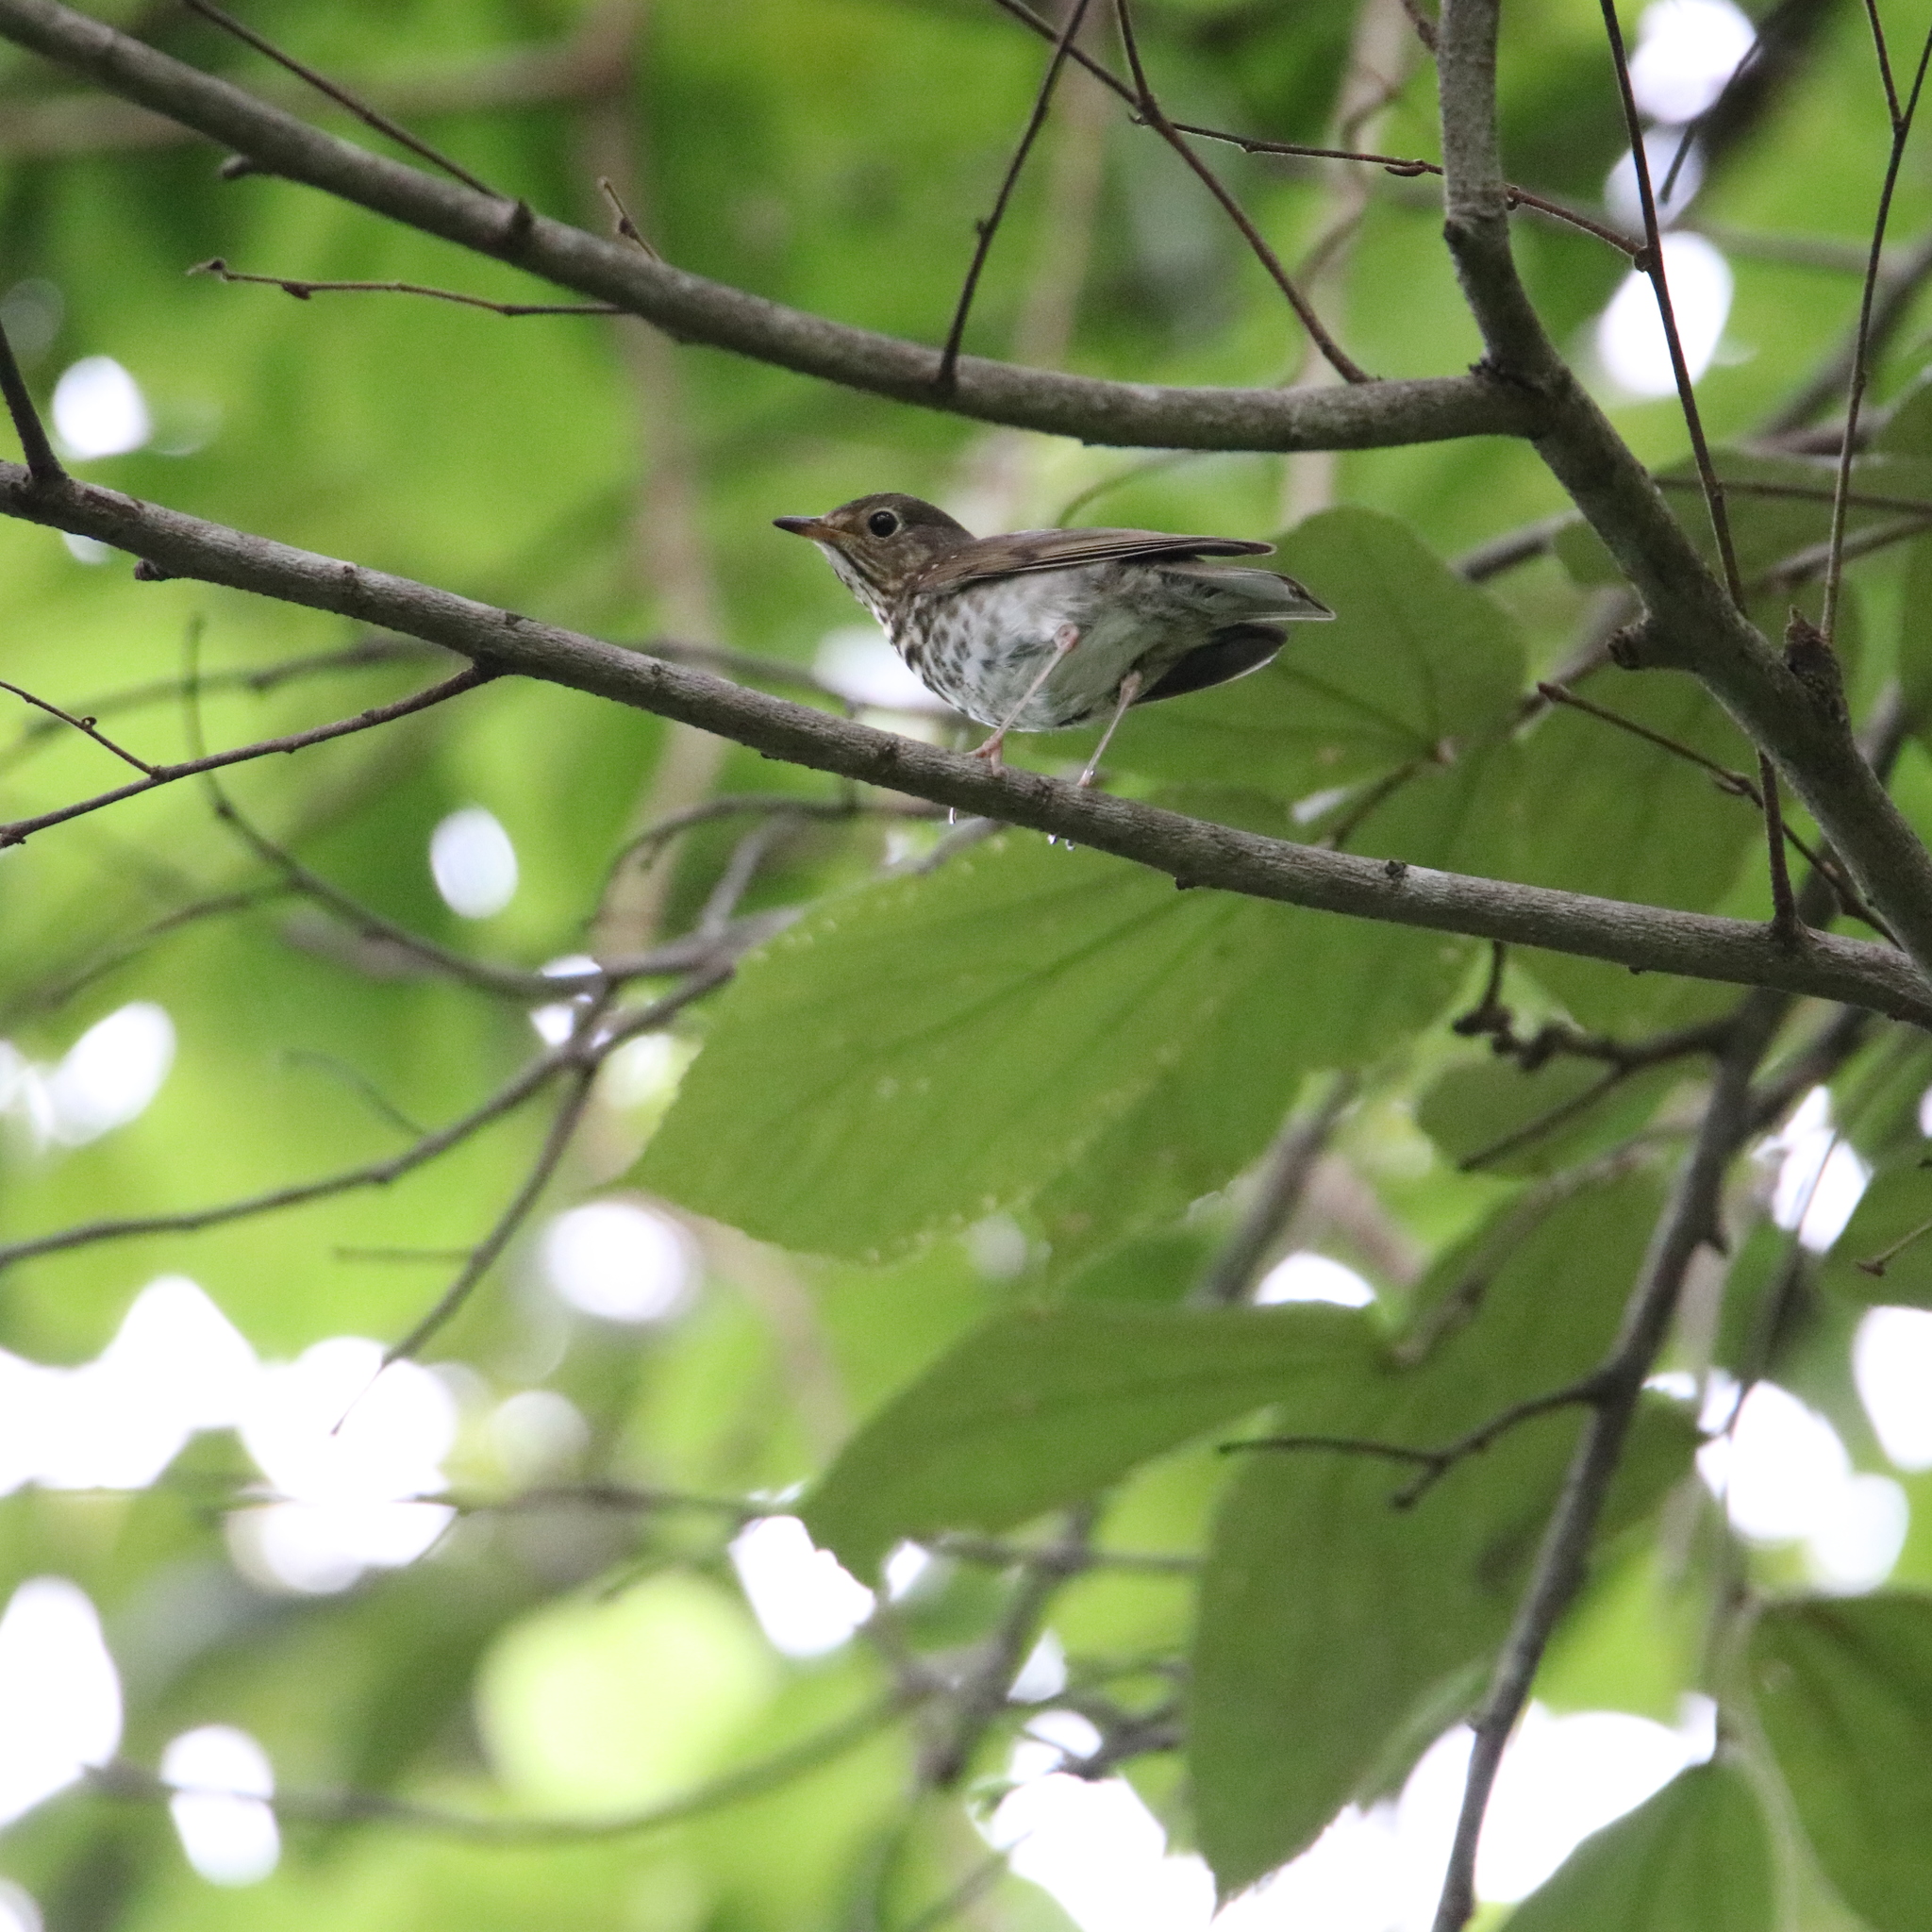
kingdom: Animalia
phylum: Chordata
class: Aves
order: Passeriformes
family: Turdidae
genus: Catharus
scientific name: Catharus ustulatus
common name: Swainson's thrush
